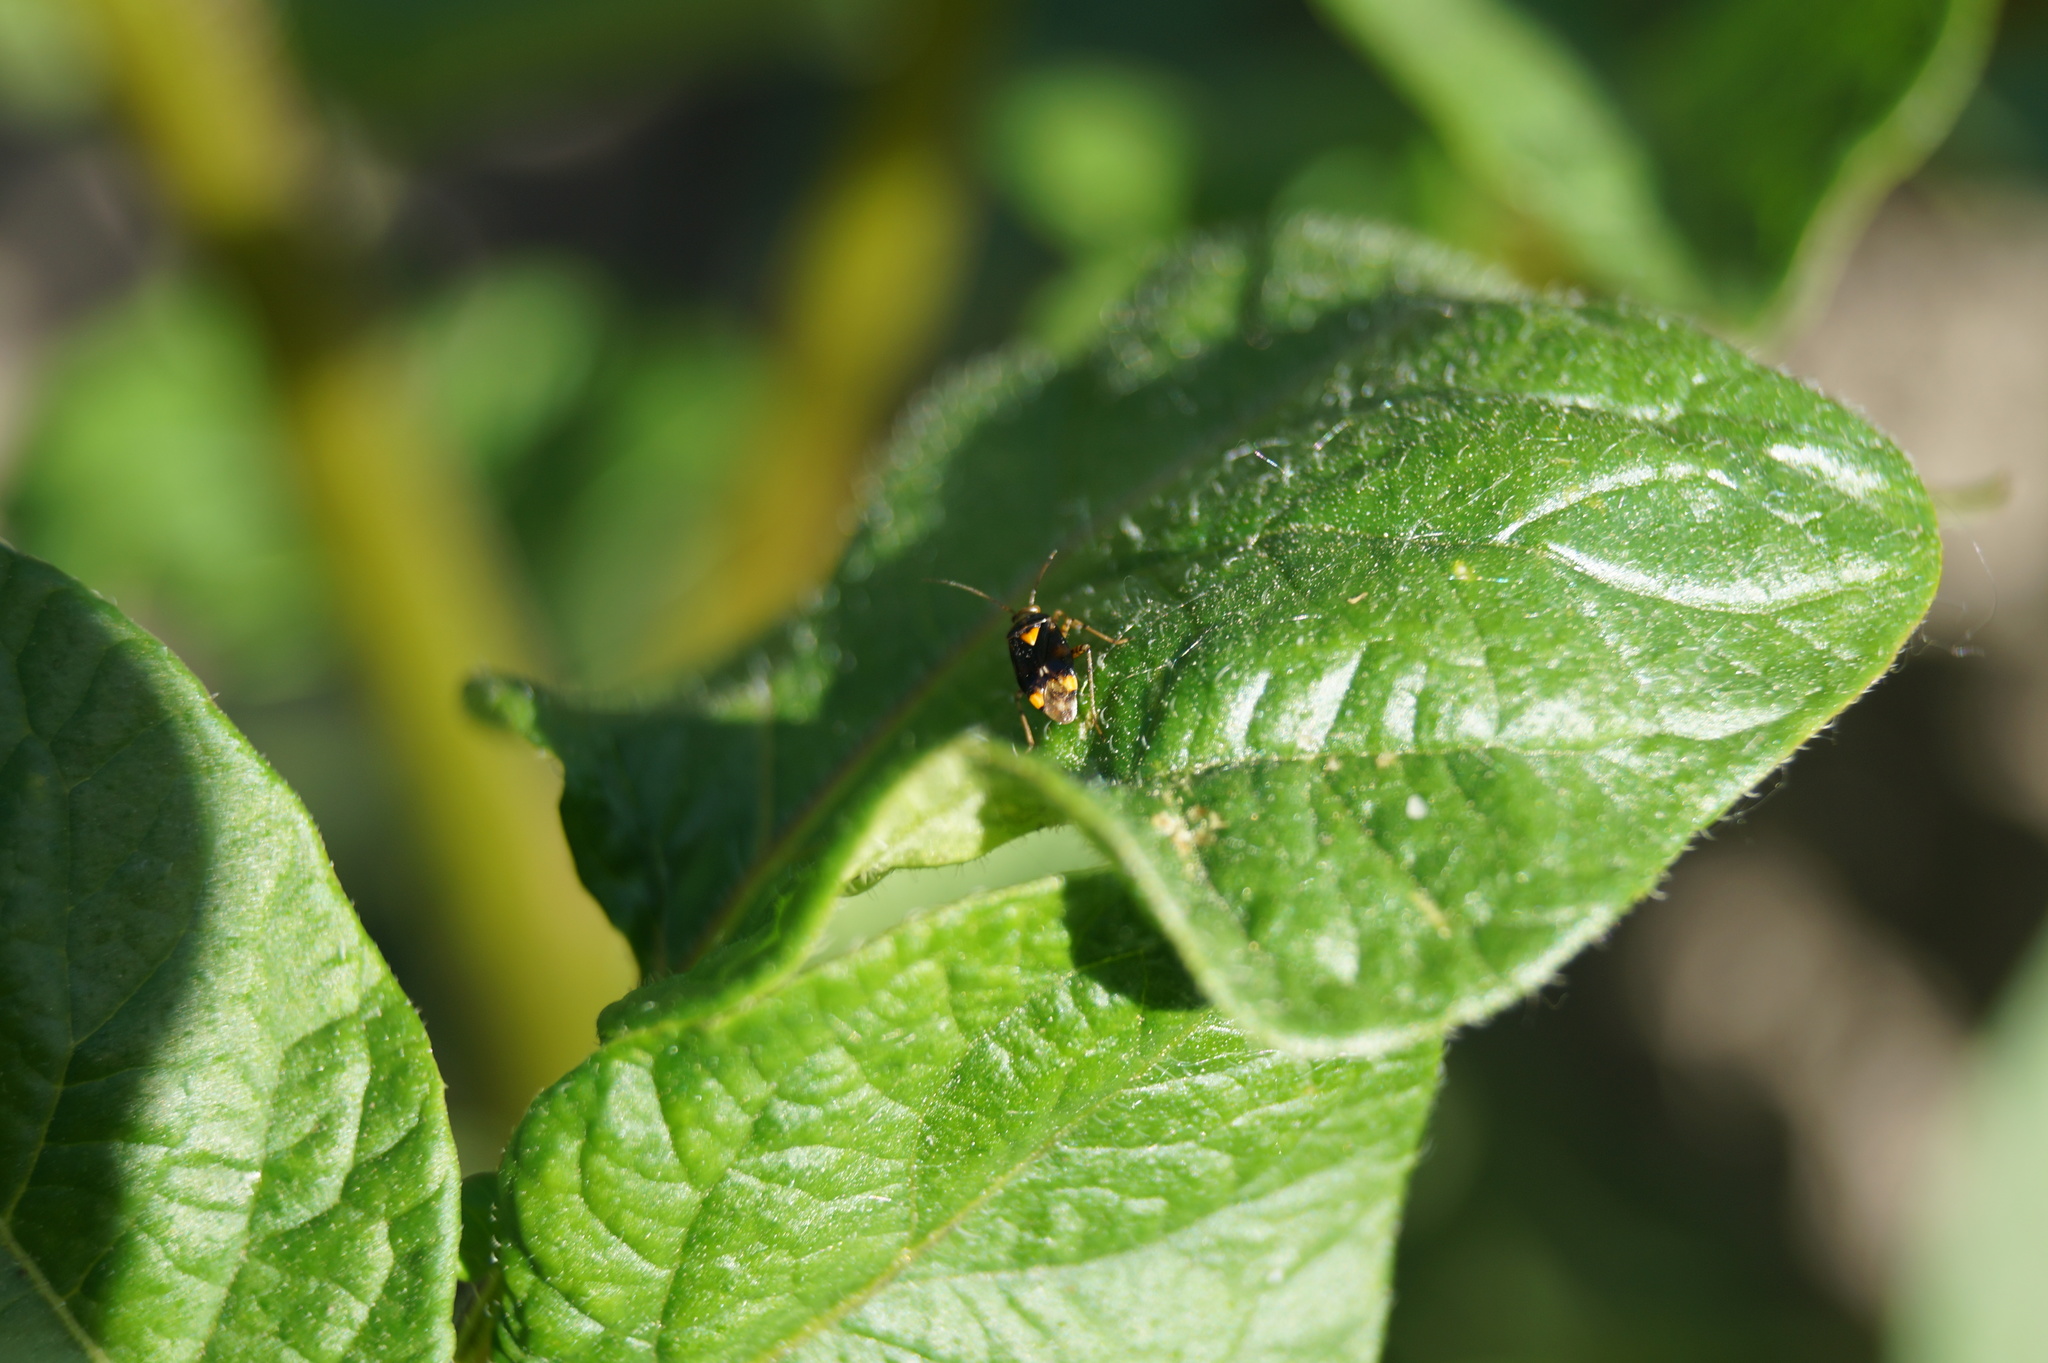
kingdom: Animalia
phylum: Arthropoda
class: Insecta
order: Hemiptera
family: Miridae
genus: Liocoris
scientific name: Liocoris tripustulatus
